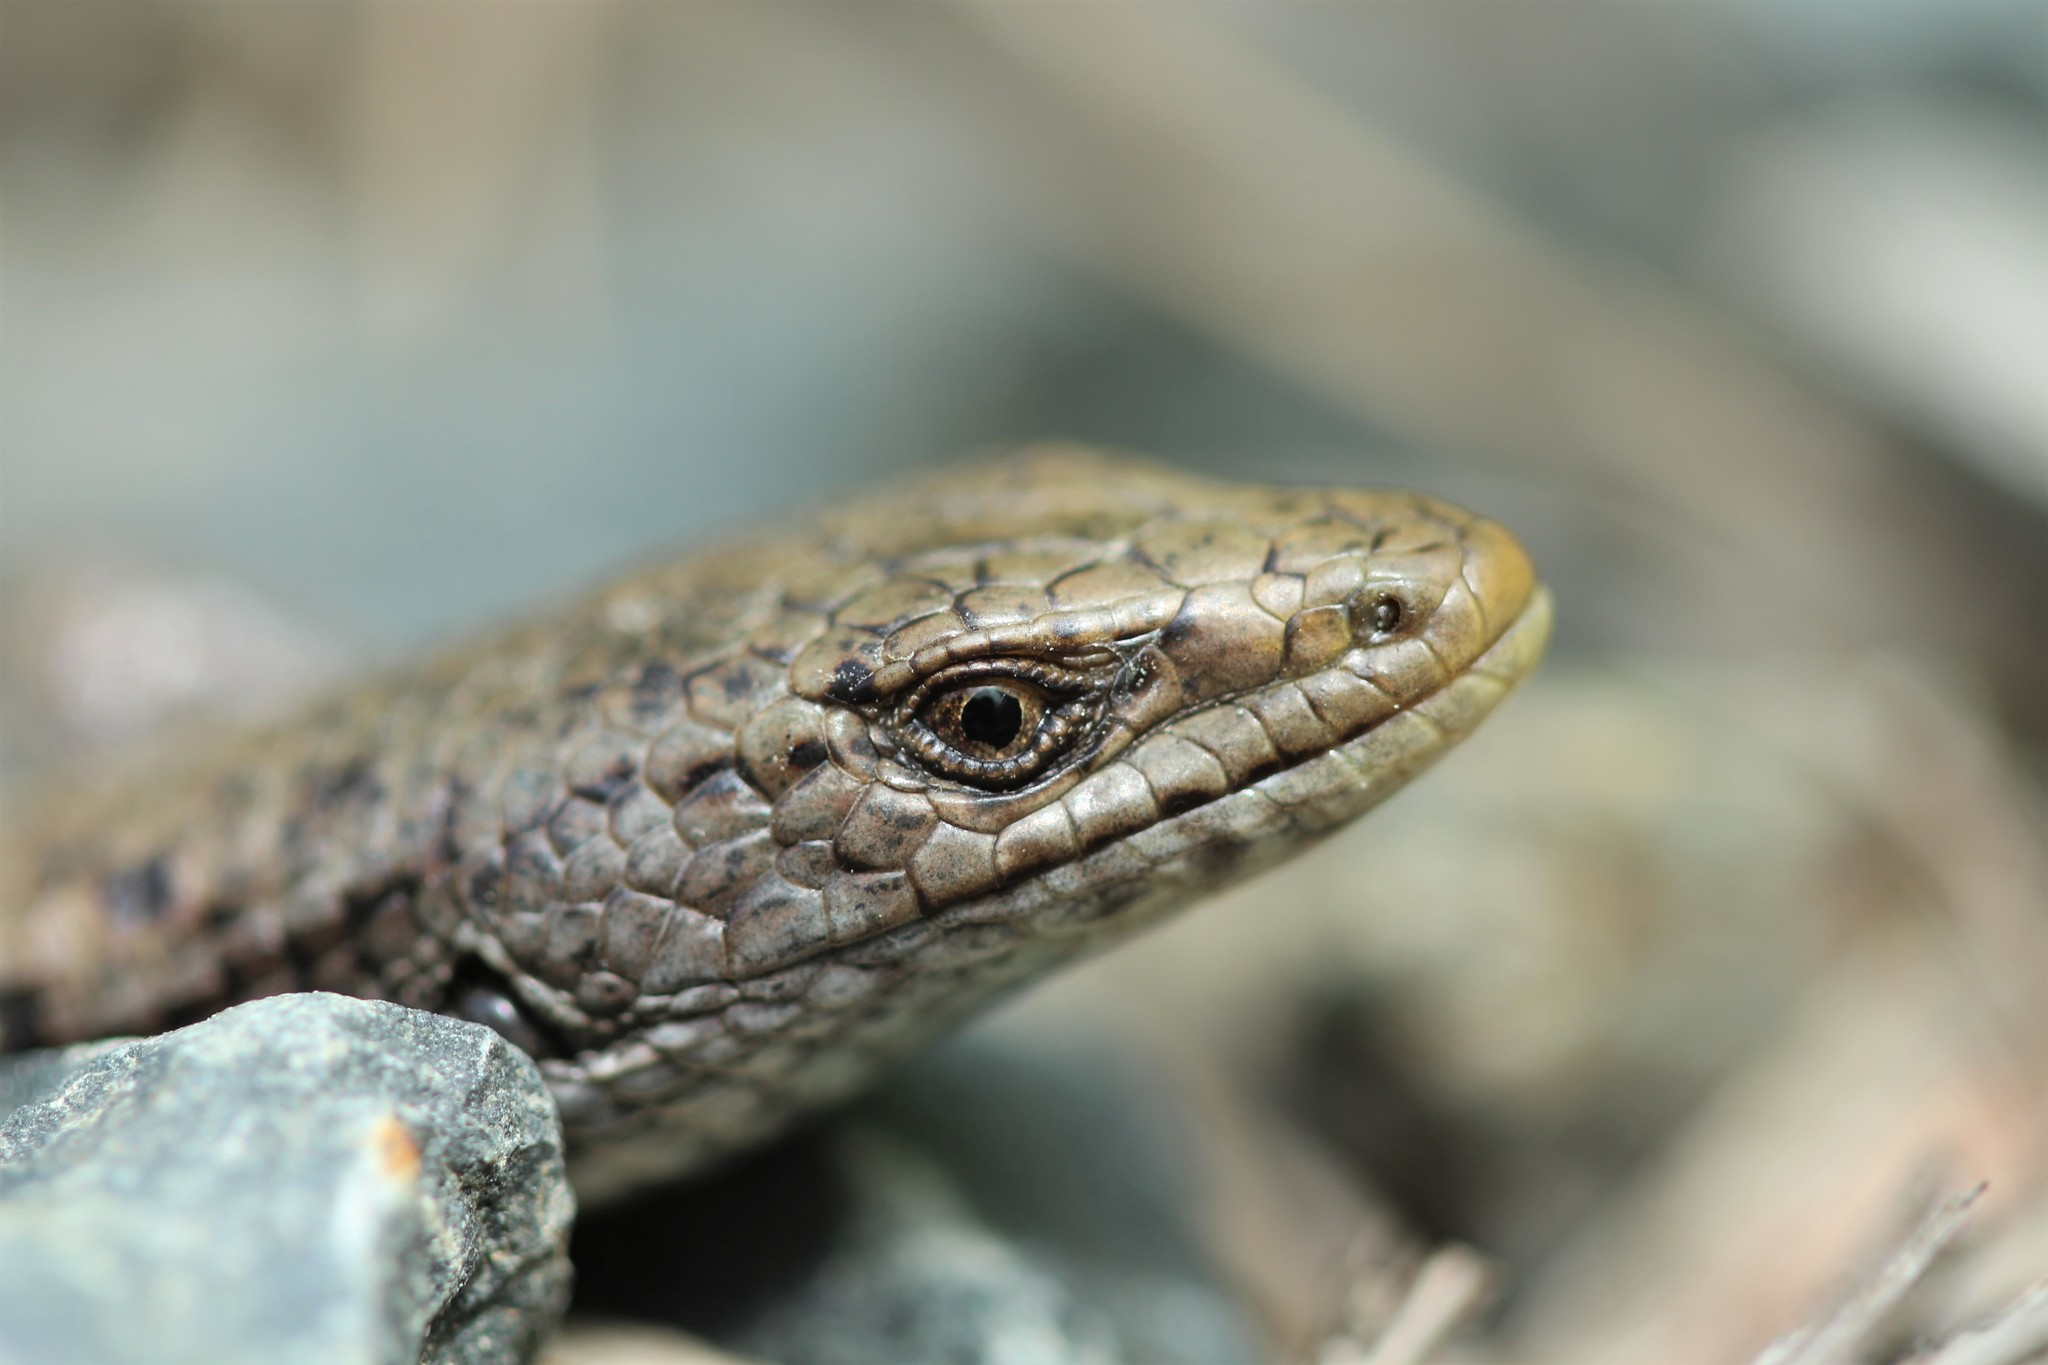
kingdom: Animalia
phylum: Chordata
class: Squamata
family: Anguidae
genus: Elgaria
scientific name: Elgaria coerulea
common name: Northern alligator lizard
